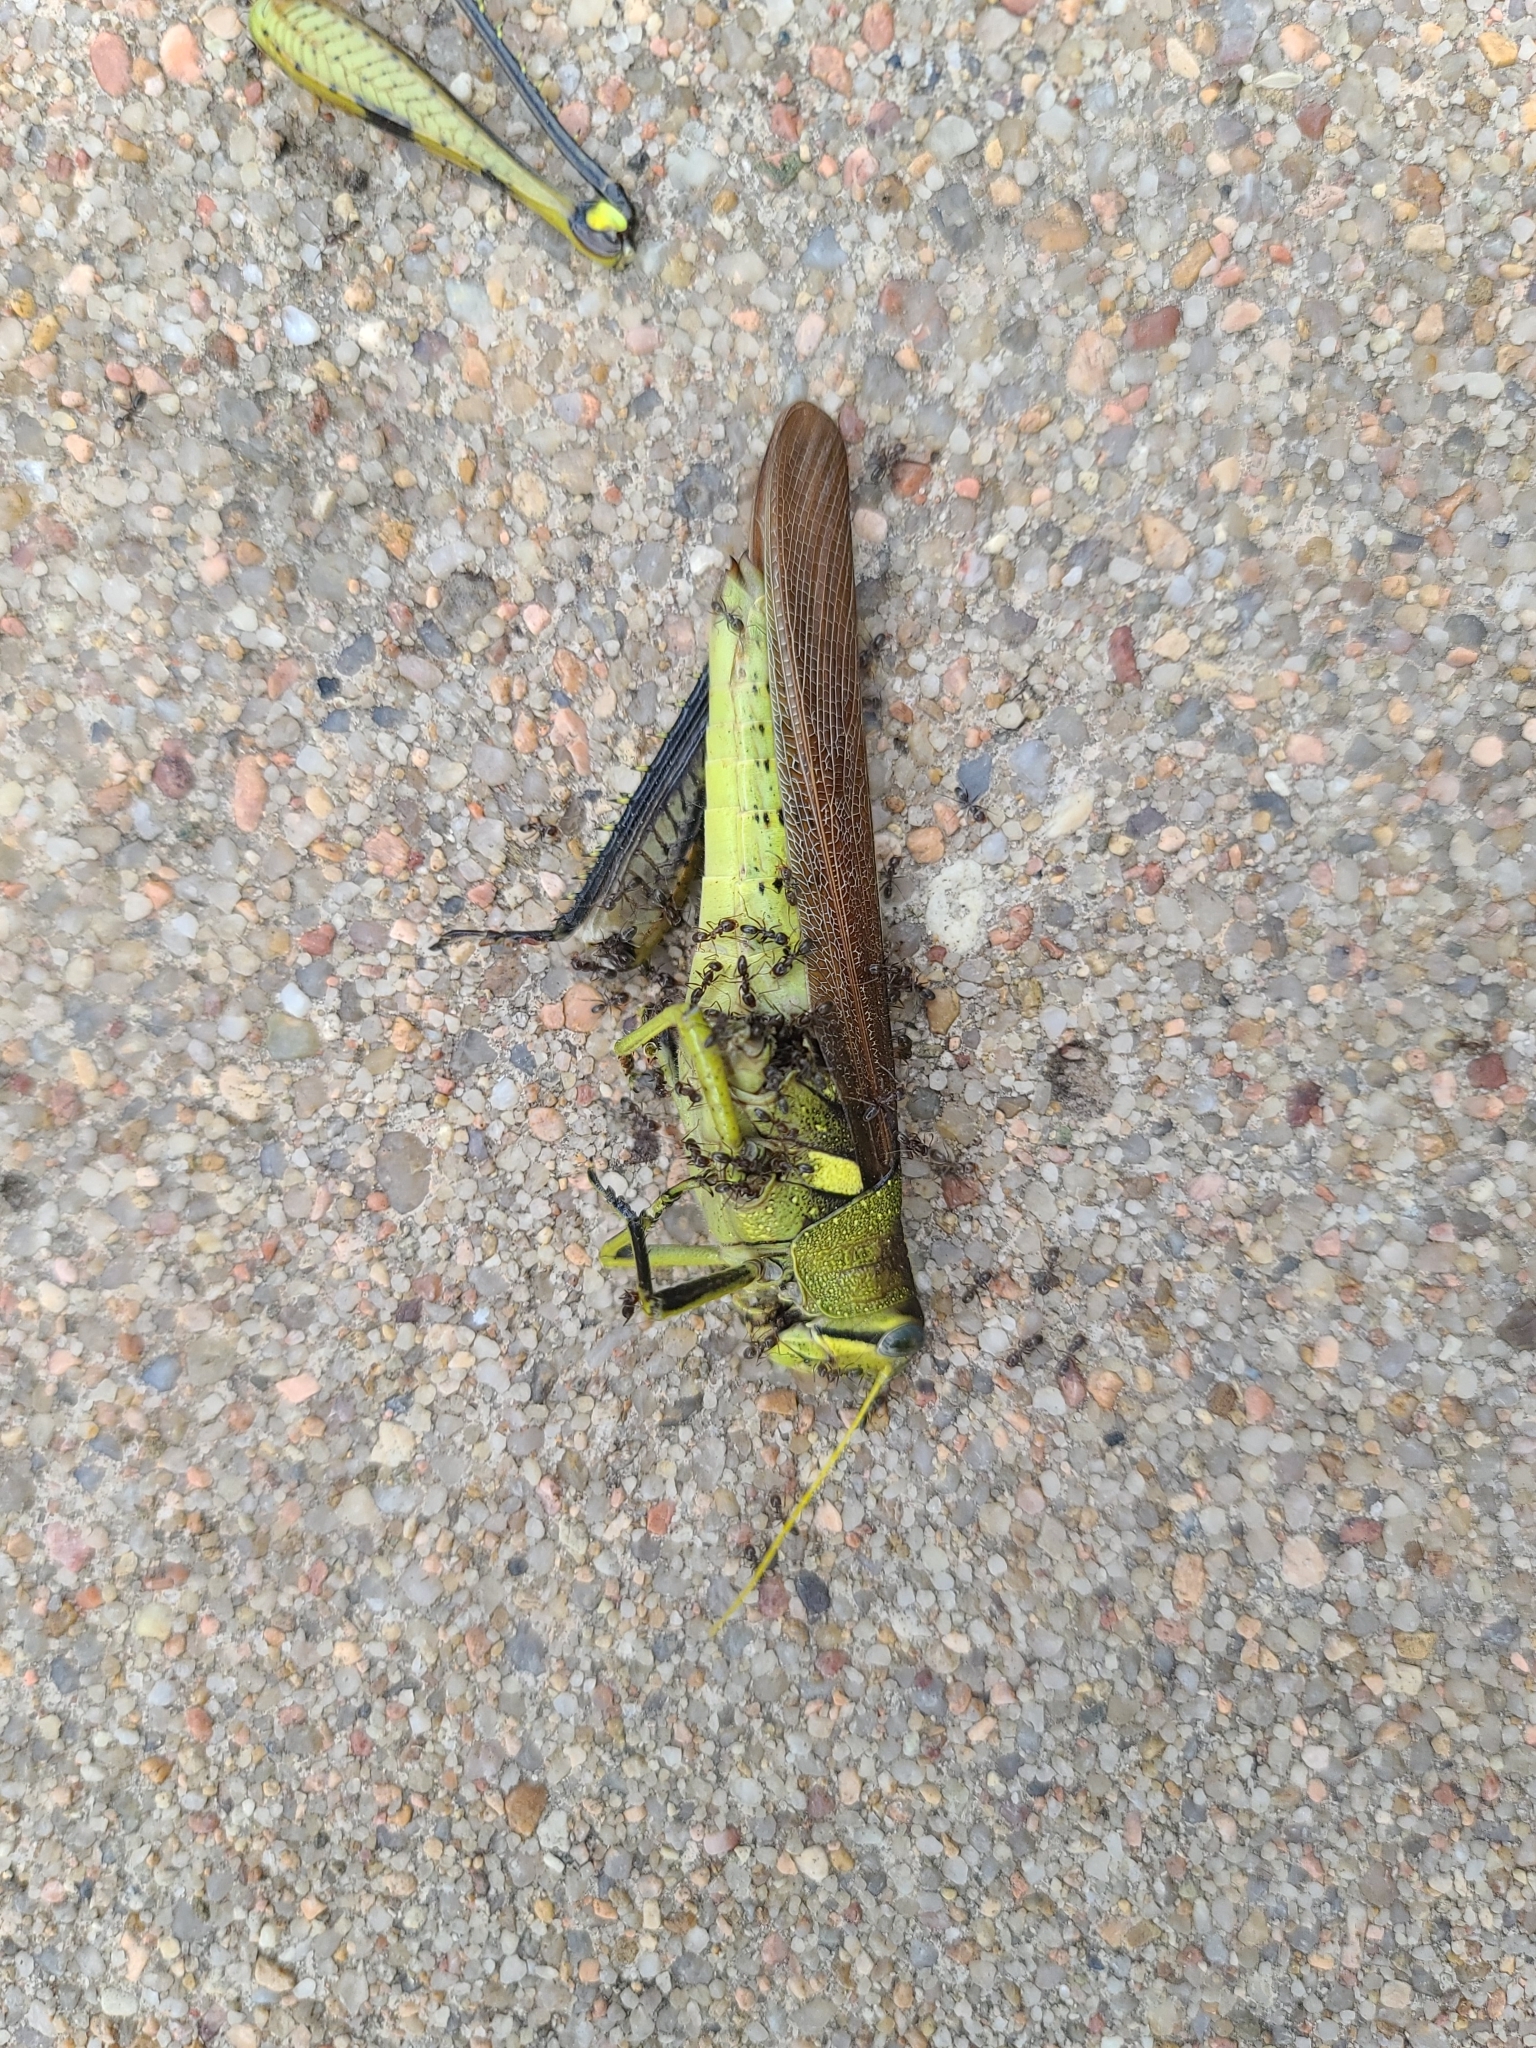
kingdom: Animalia
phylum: Arthropoda
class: Insecta
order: Orthoptera
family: Acrididae
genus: Schistocerca
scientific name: Schistocerca obscura
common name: Obscure bird grasshopper
